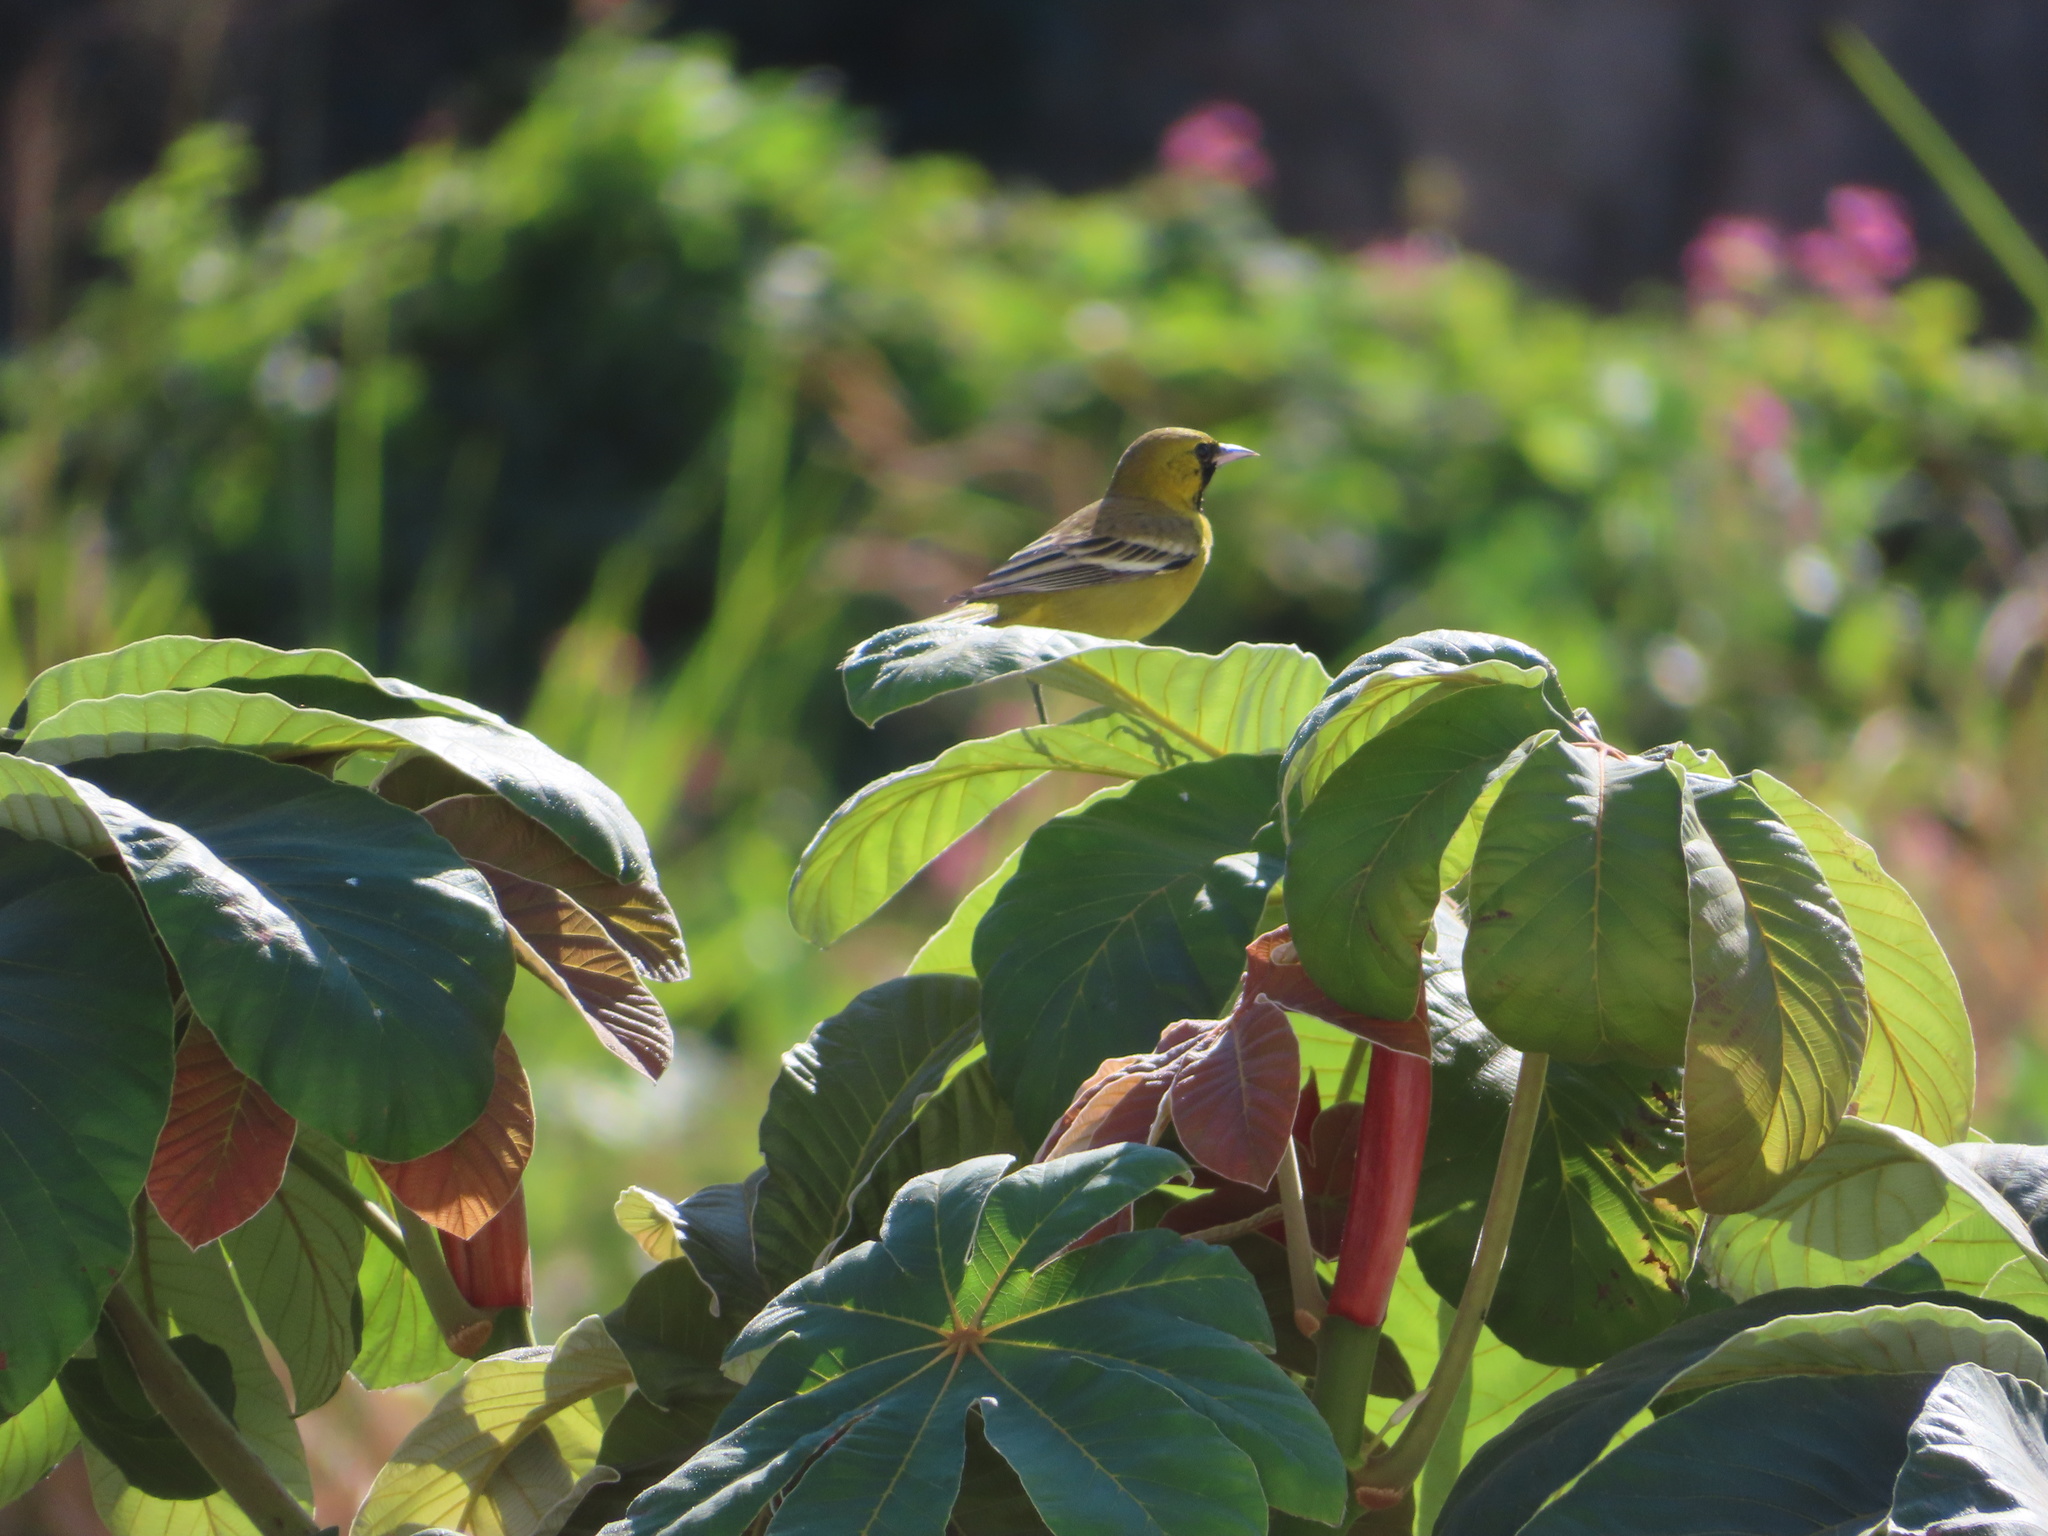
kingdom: Animalia
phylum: Chordata
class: Aves
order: Passeriformes
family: Icteridae
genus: Icterus
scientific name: Icterus spurius
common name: Orchard oriole
